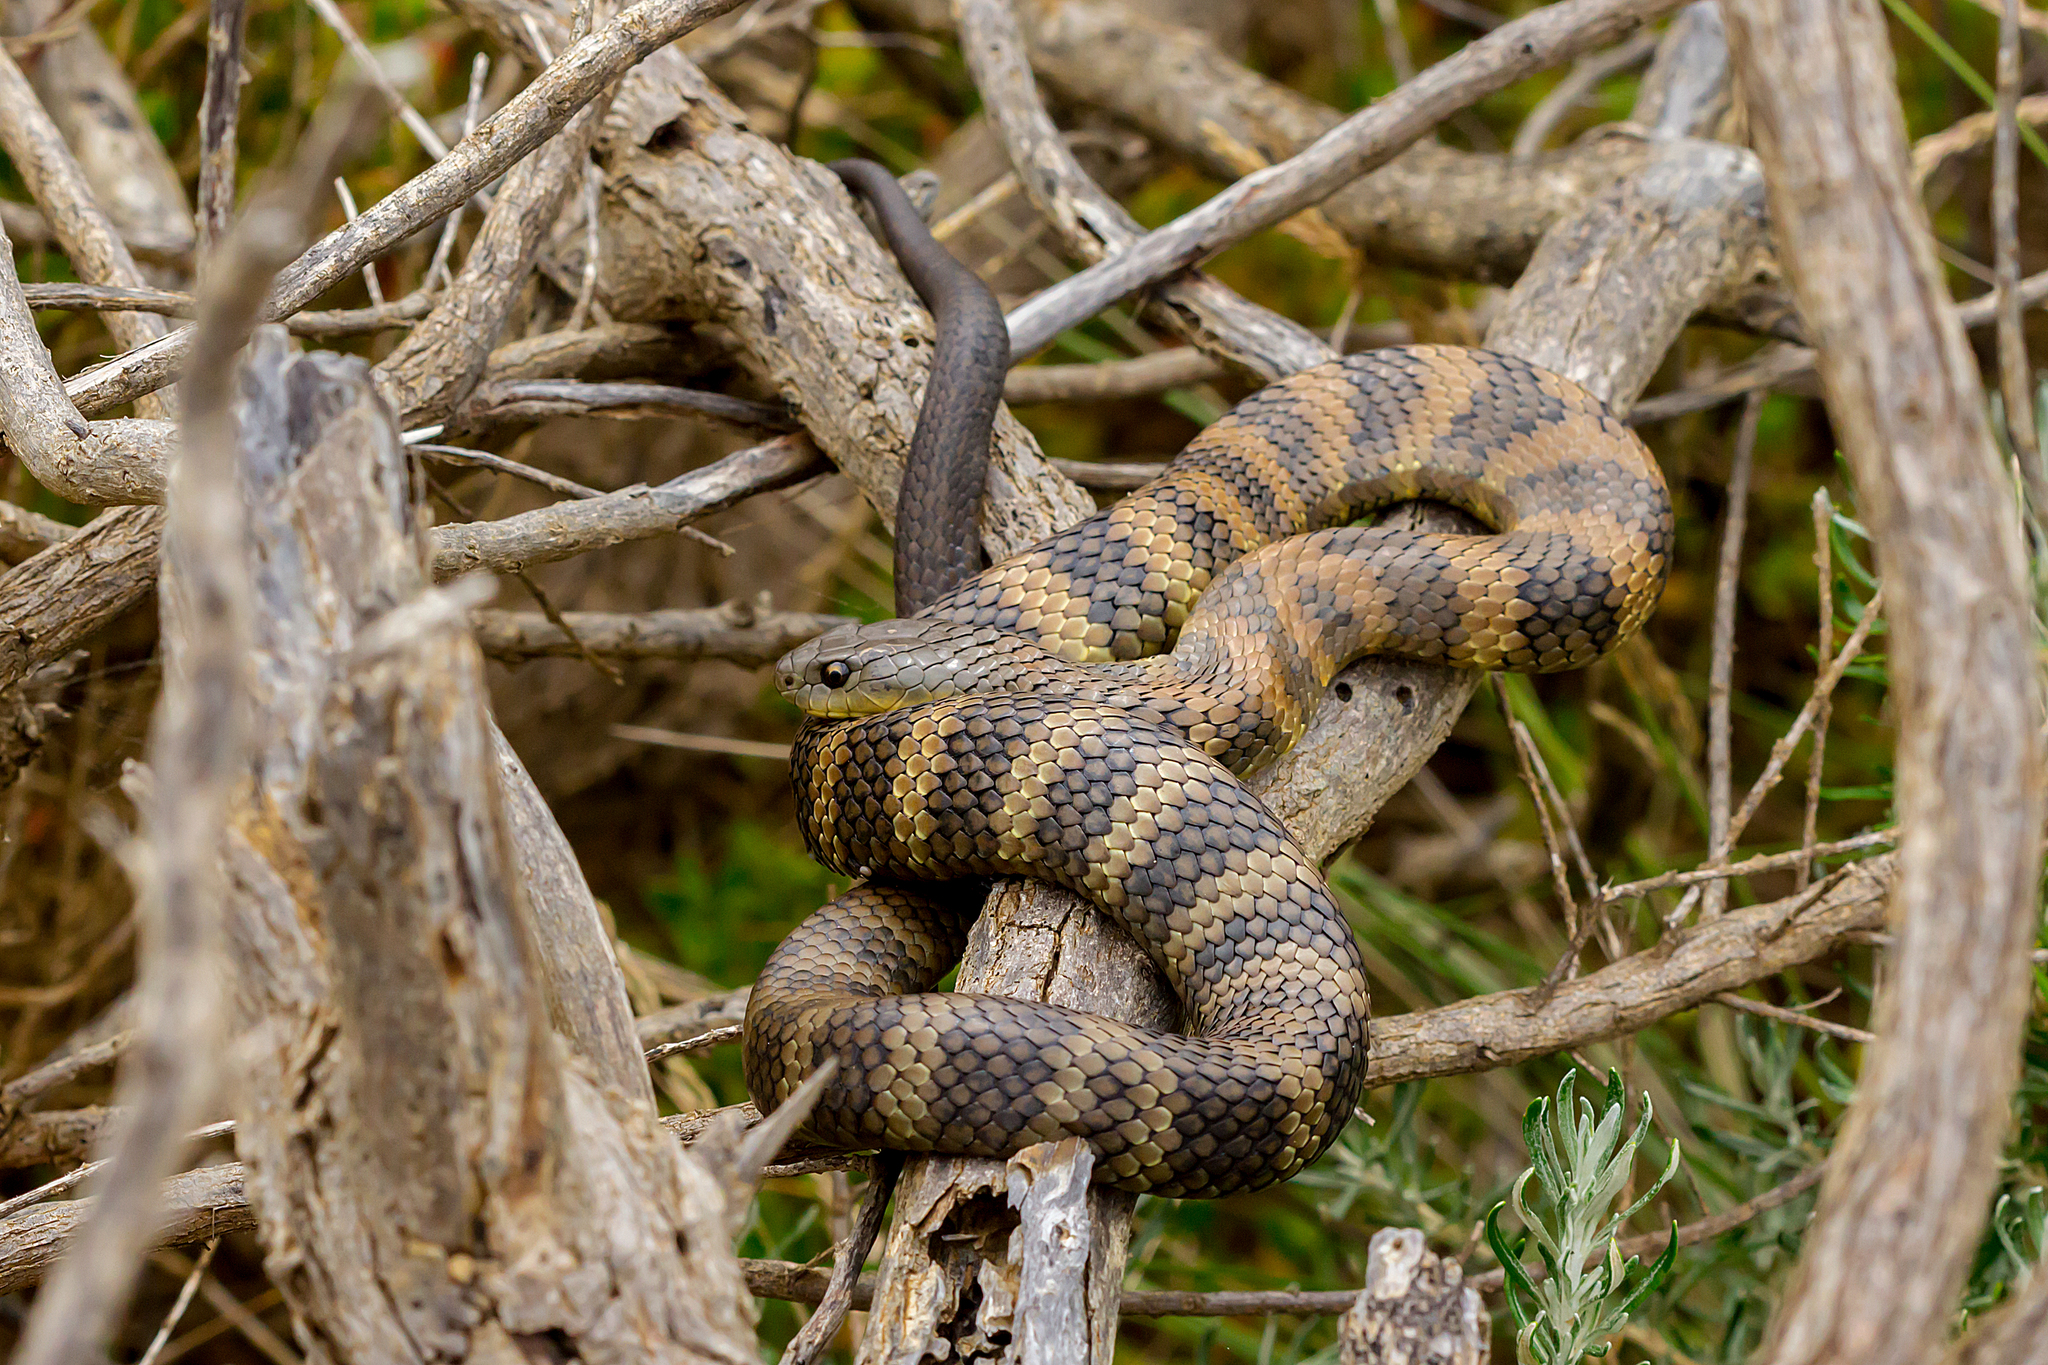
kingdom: Animalia
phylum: Chordata
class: Squamata
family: Elapidae
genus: Notechis
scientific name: Notechis scutatus
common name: Mainland tiger snake
